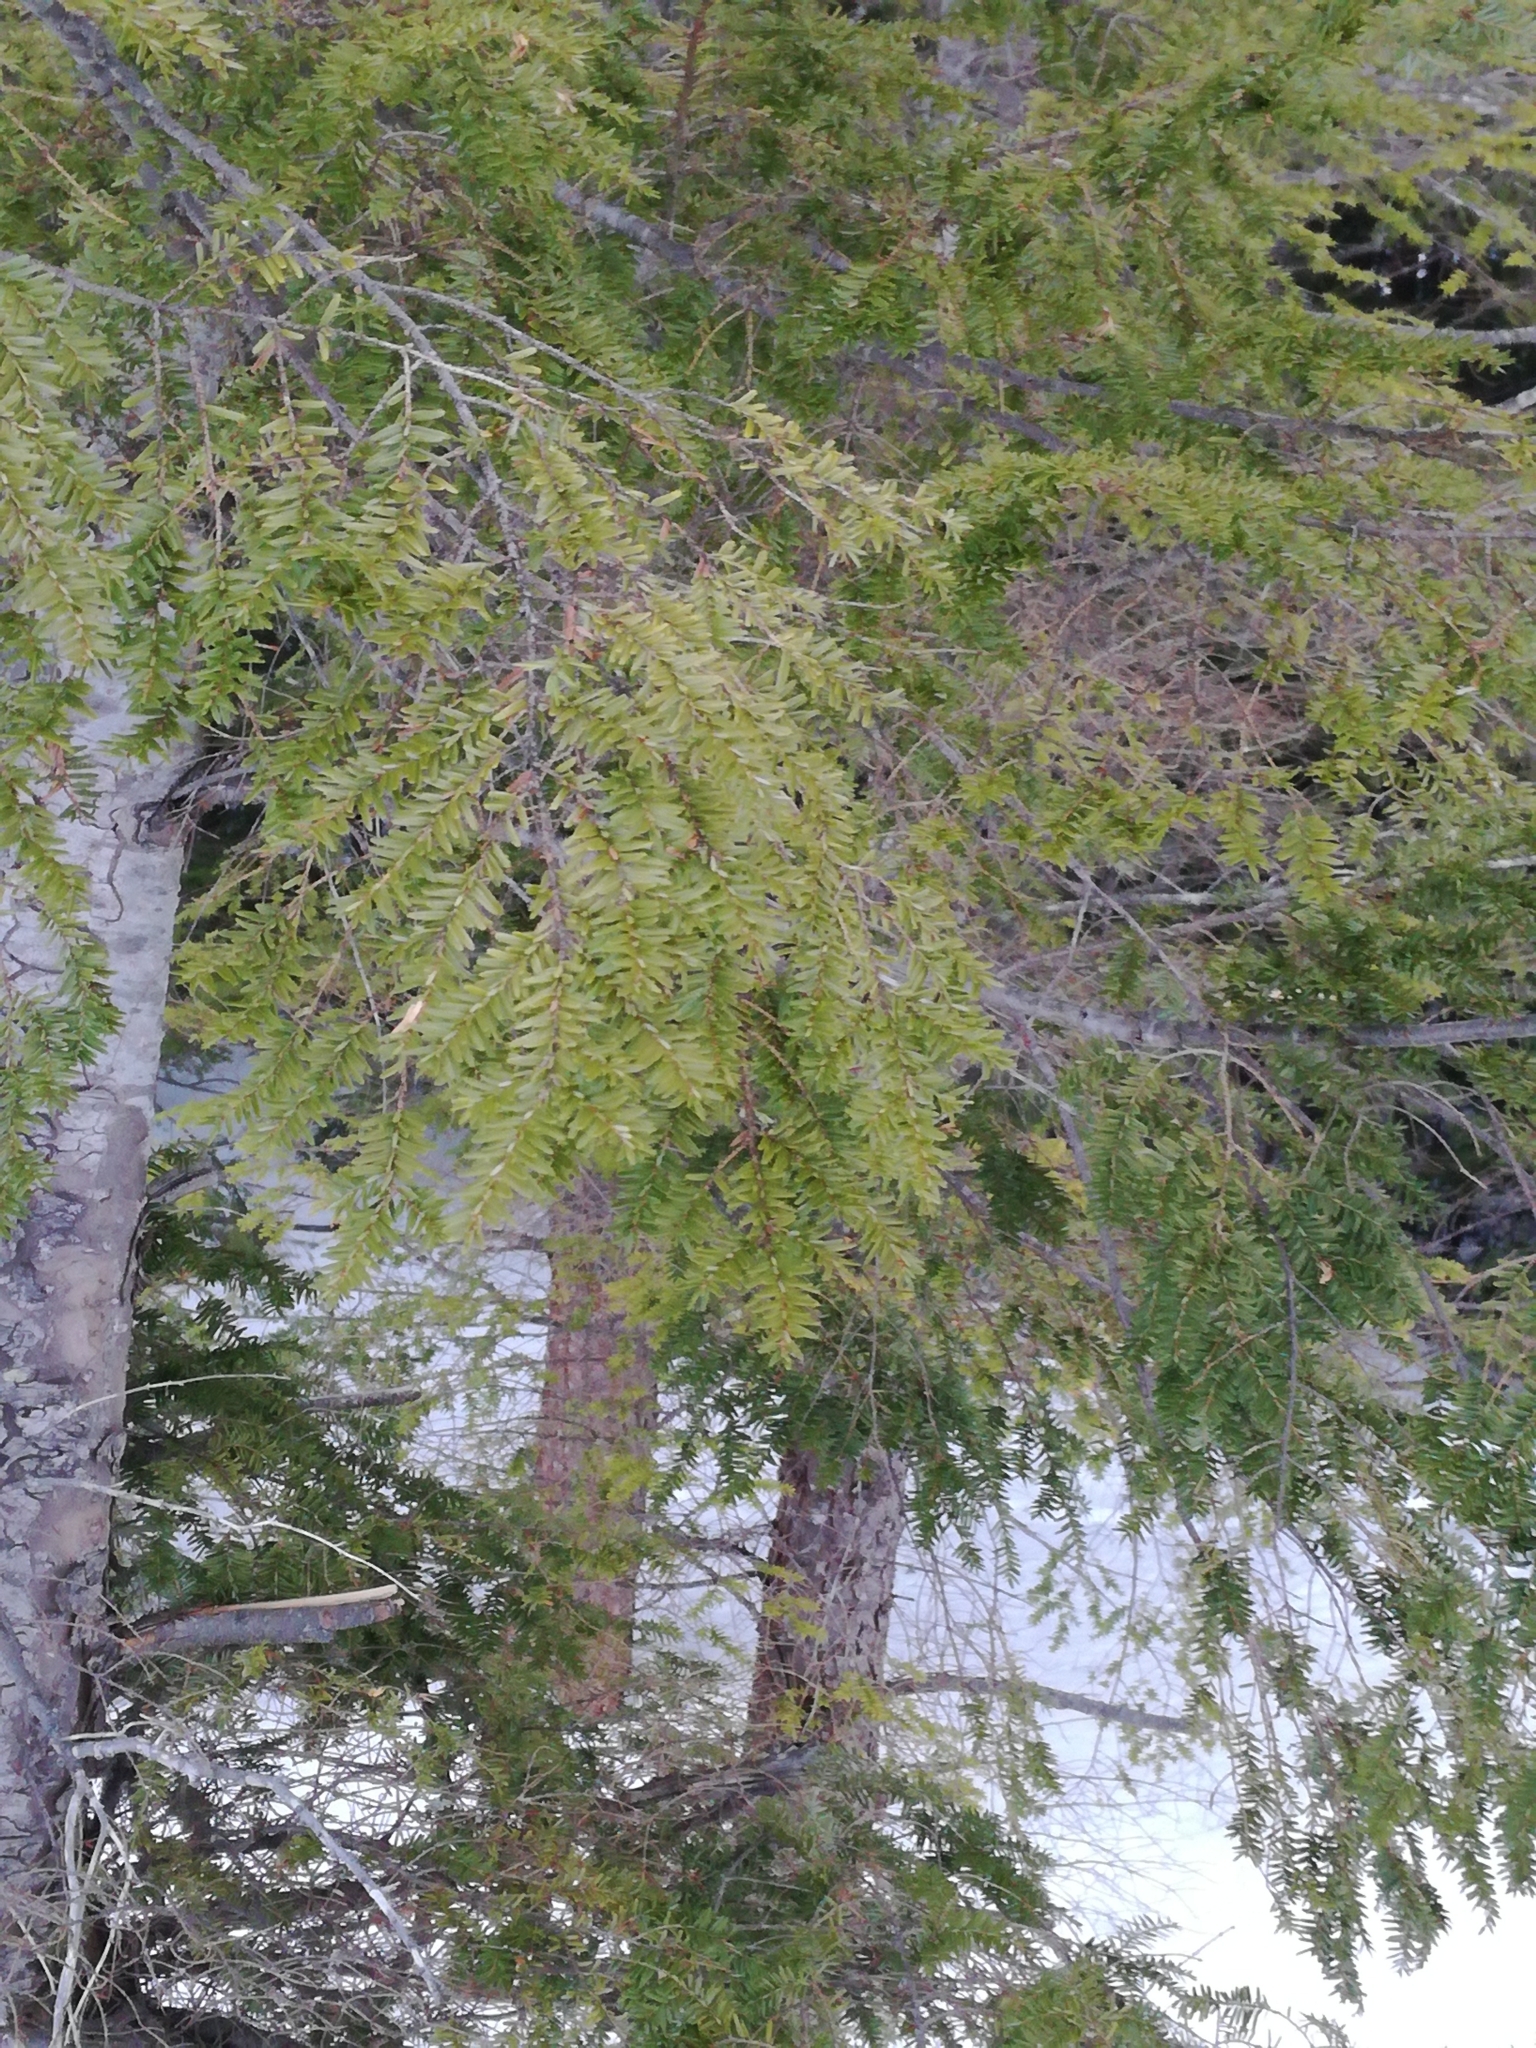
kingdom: Plantae
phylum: Tracheophyta
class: Pinopsida
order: Pinales
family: Pinaceae
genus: Tsuga
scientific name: Tsuga canadensis
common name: Eastern hemlock
